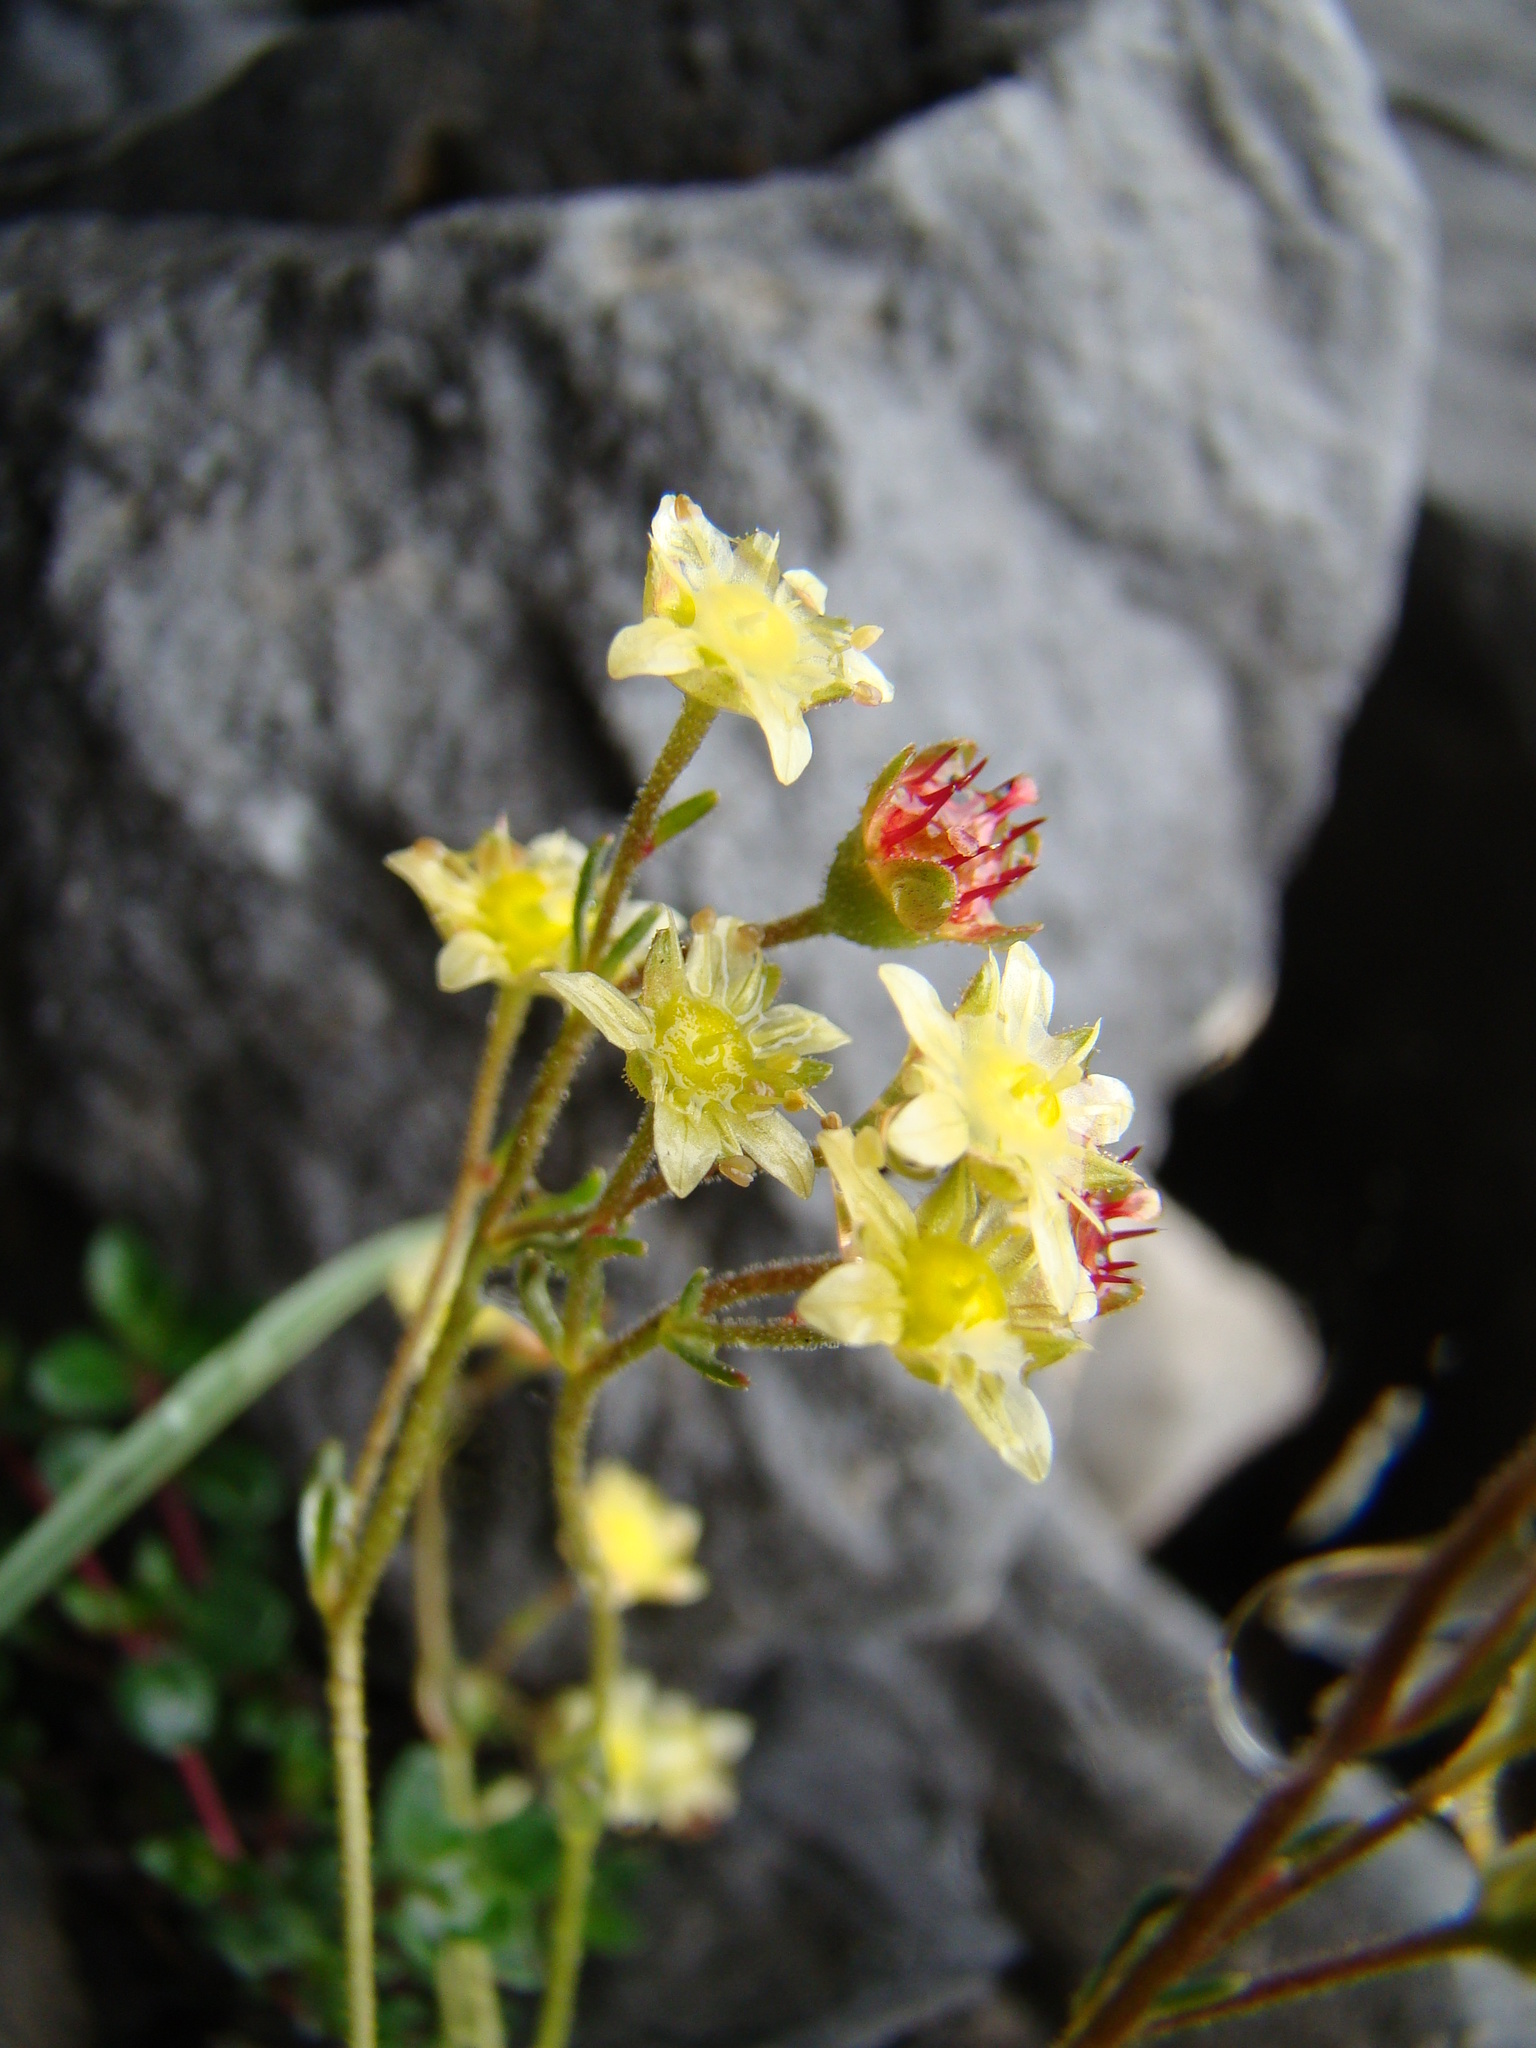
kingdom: Plantae
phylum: Tracheophyta
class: Magnoliopsida
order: Saxifragales
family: Saxifragaceae
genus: Saxifraga
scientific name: Saxifraga paniculata
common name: Livelong saxifrage
